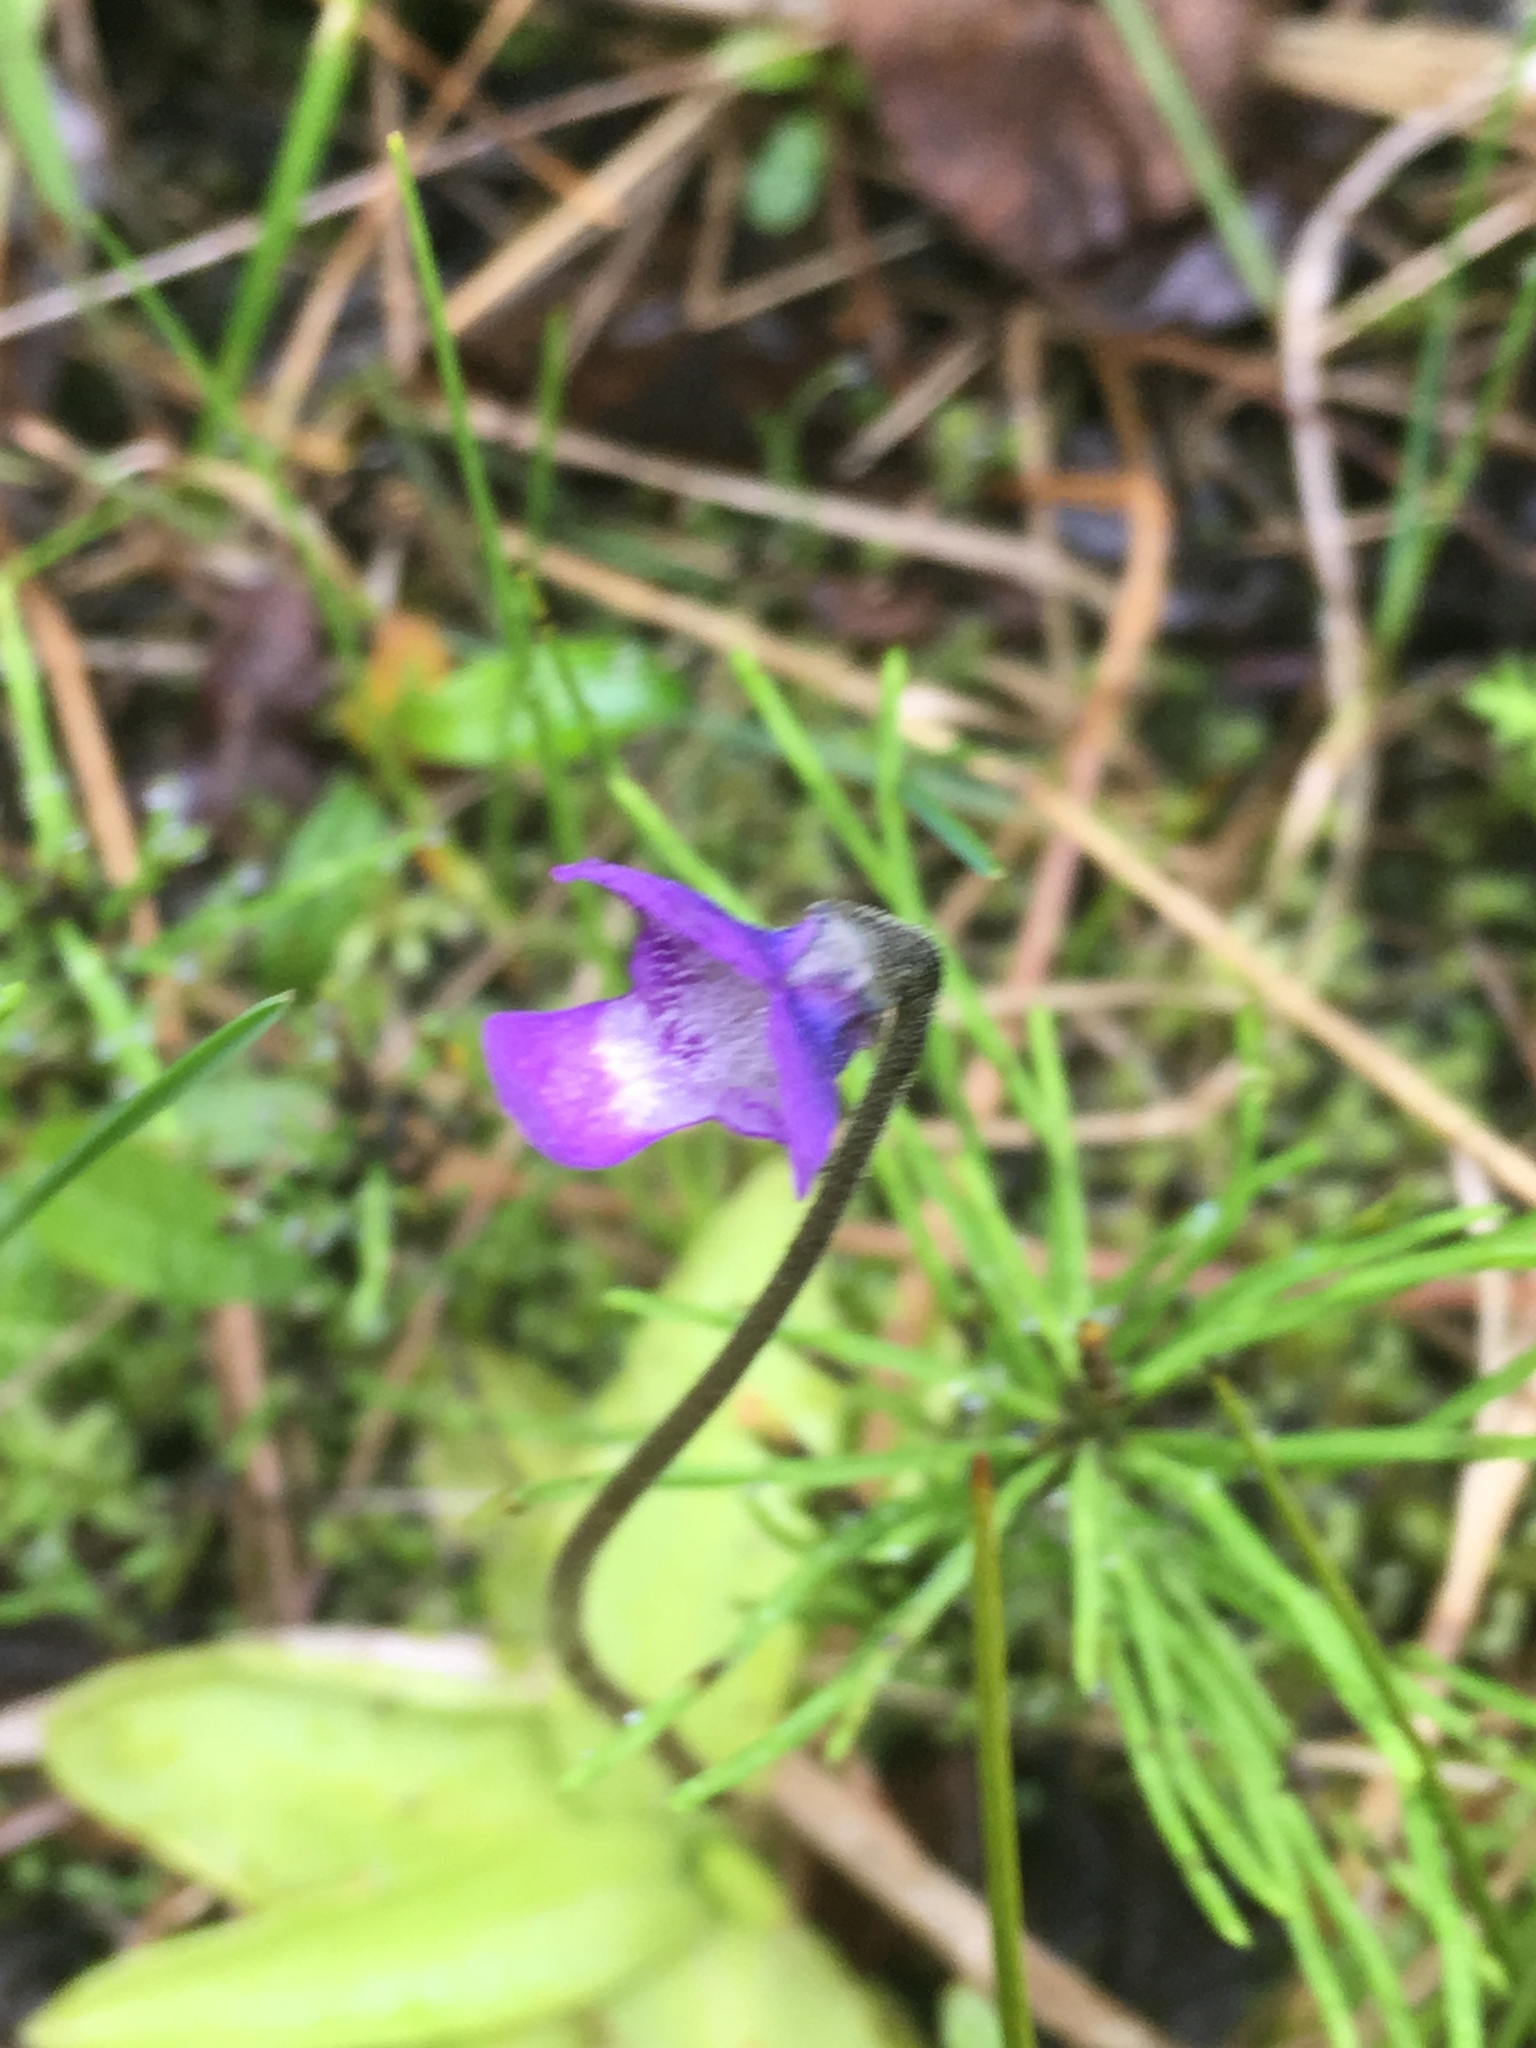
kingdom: Plantae
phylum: Tracheophyta
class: Magnoliopsida
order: Lamiales
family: Lentibulariaceae
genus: Pinguicula
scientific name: Pinguicula vulgaris
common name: Common butterwort
